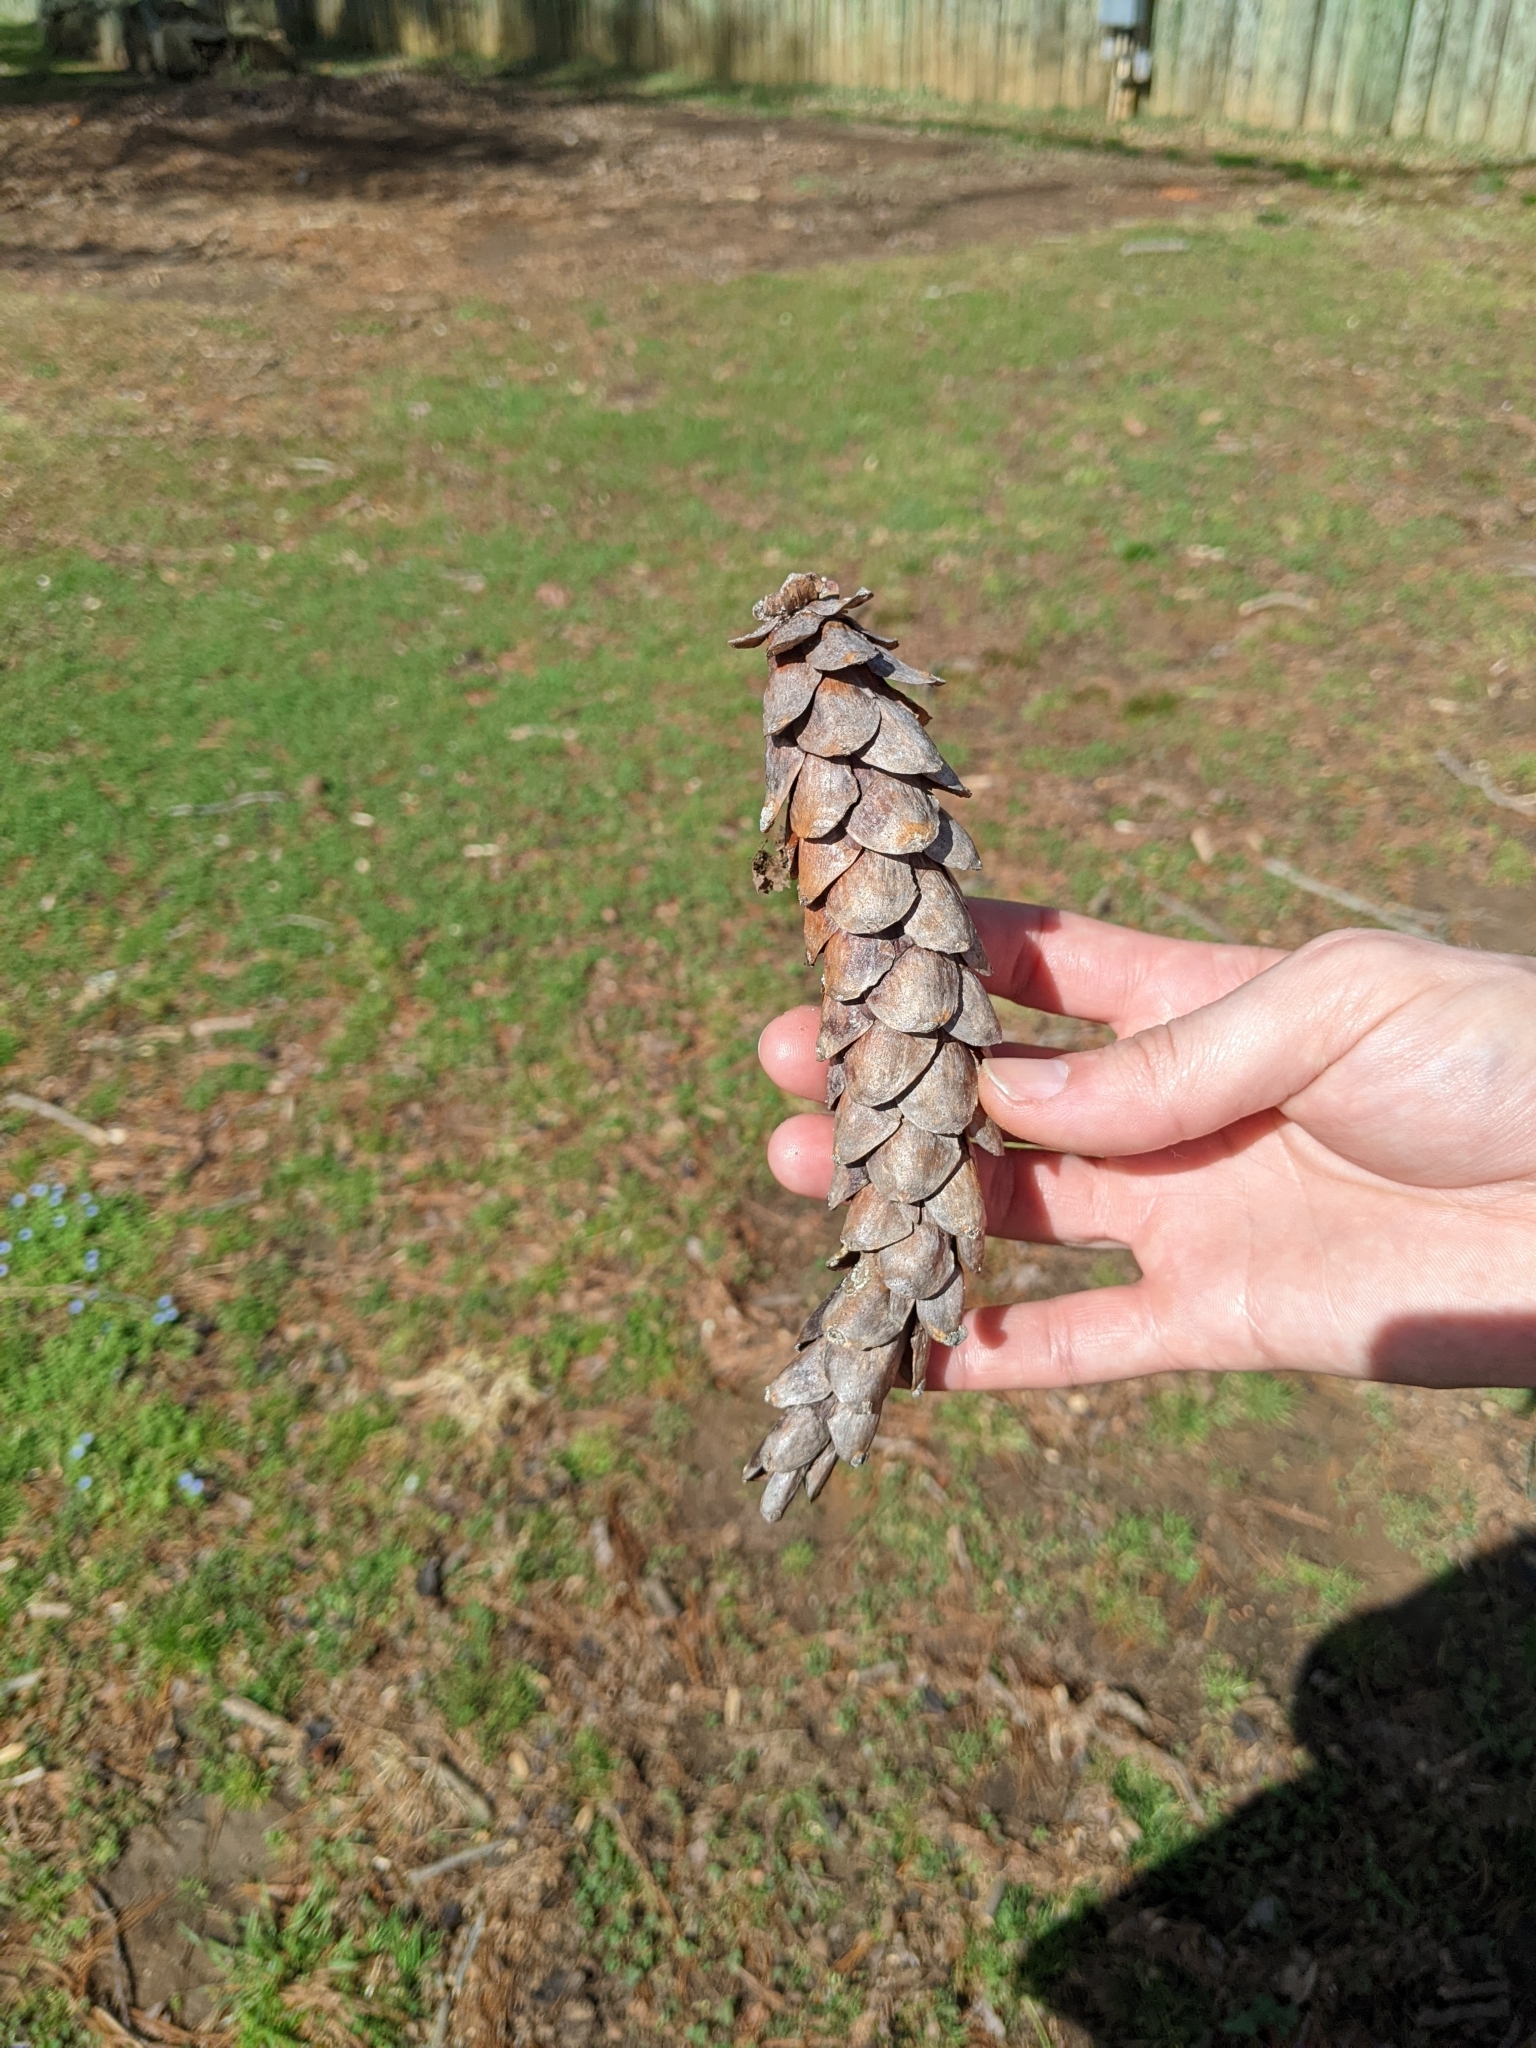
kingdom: Plantae
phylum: Tracheophyta
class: Pinopsida
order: Pinales
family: Pinaceae
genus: Pinus
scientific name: Pinus strobus
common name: Weymouth pine
